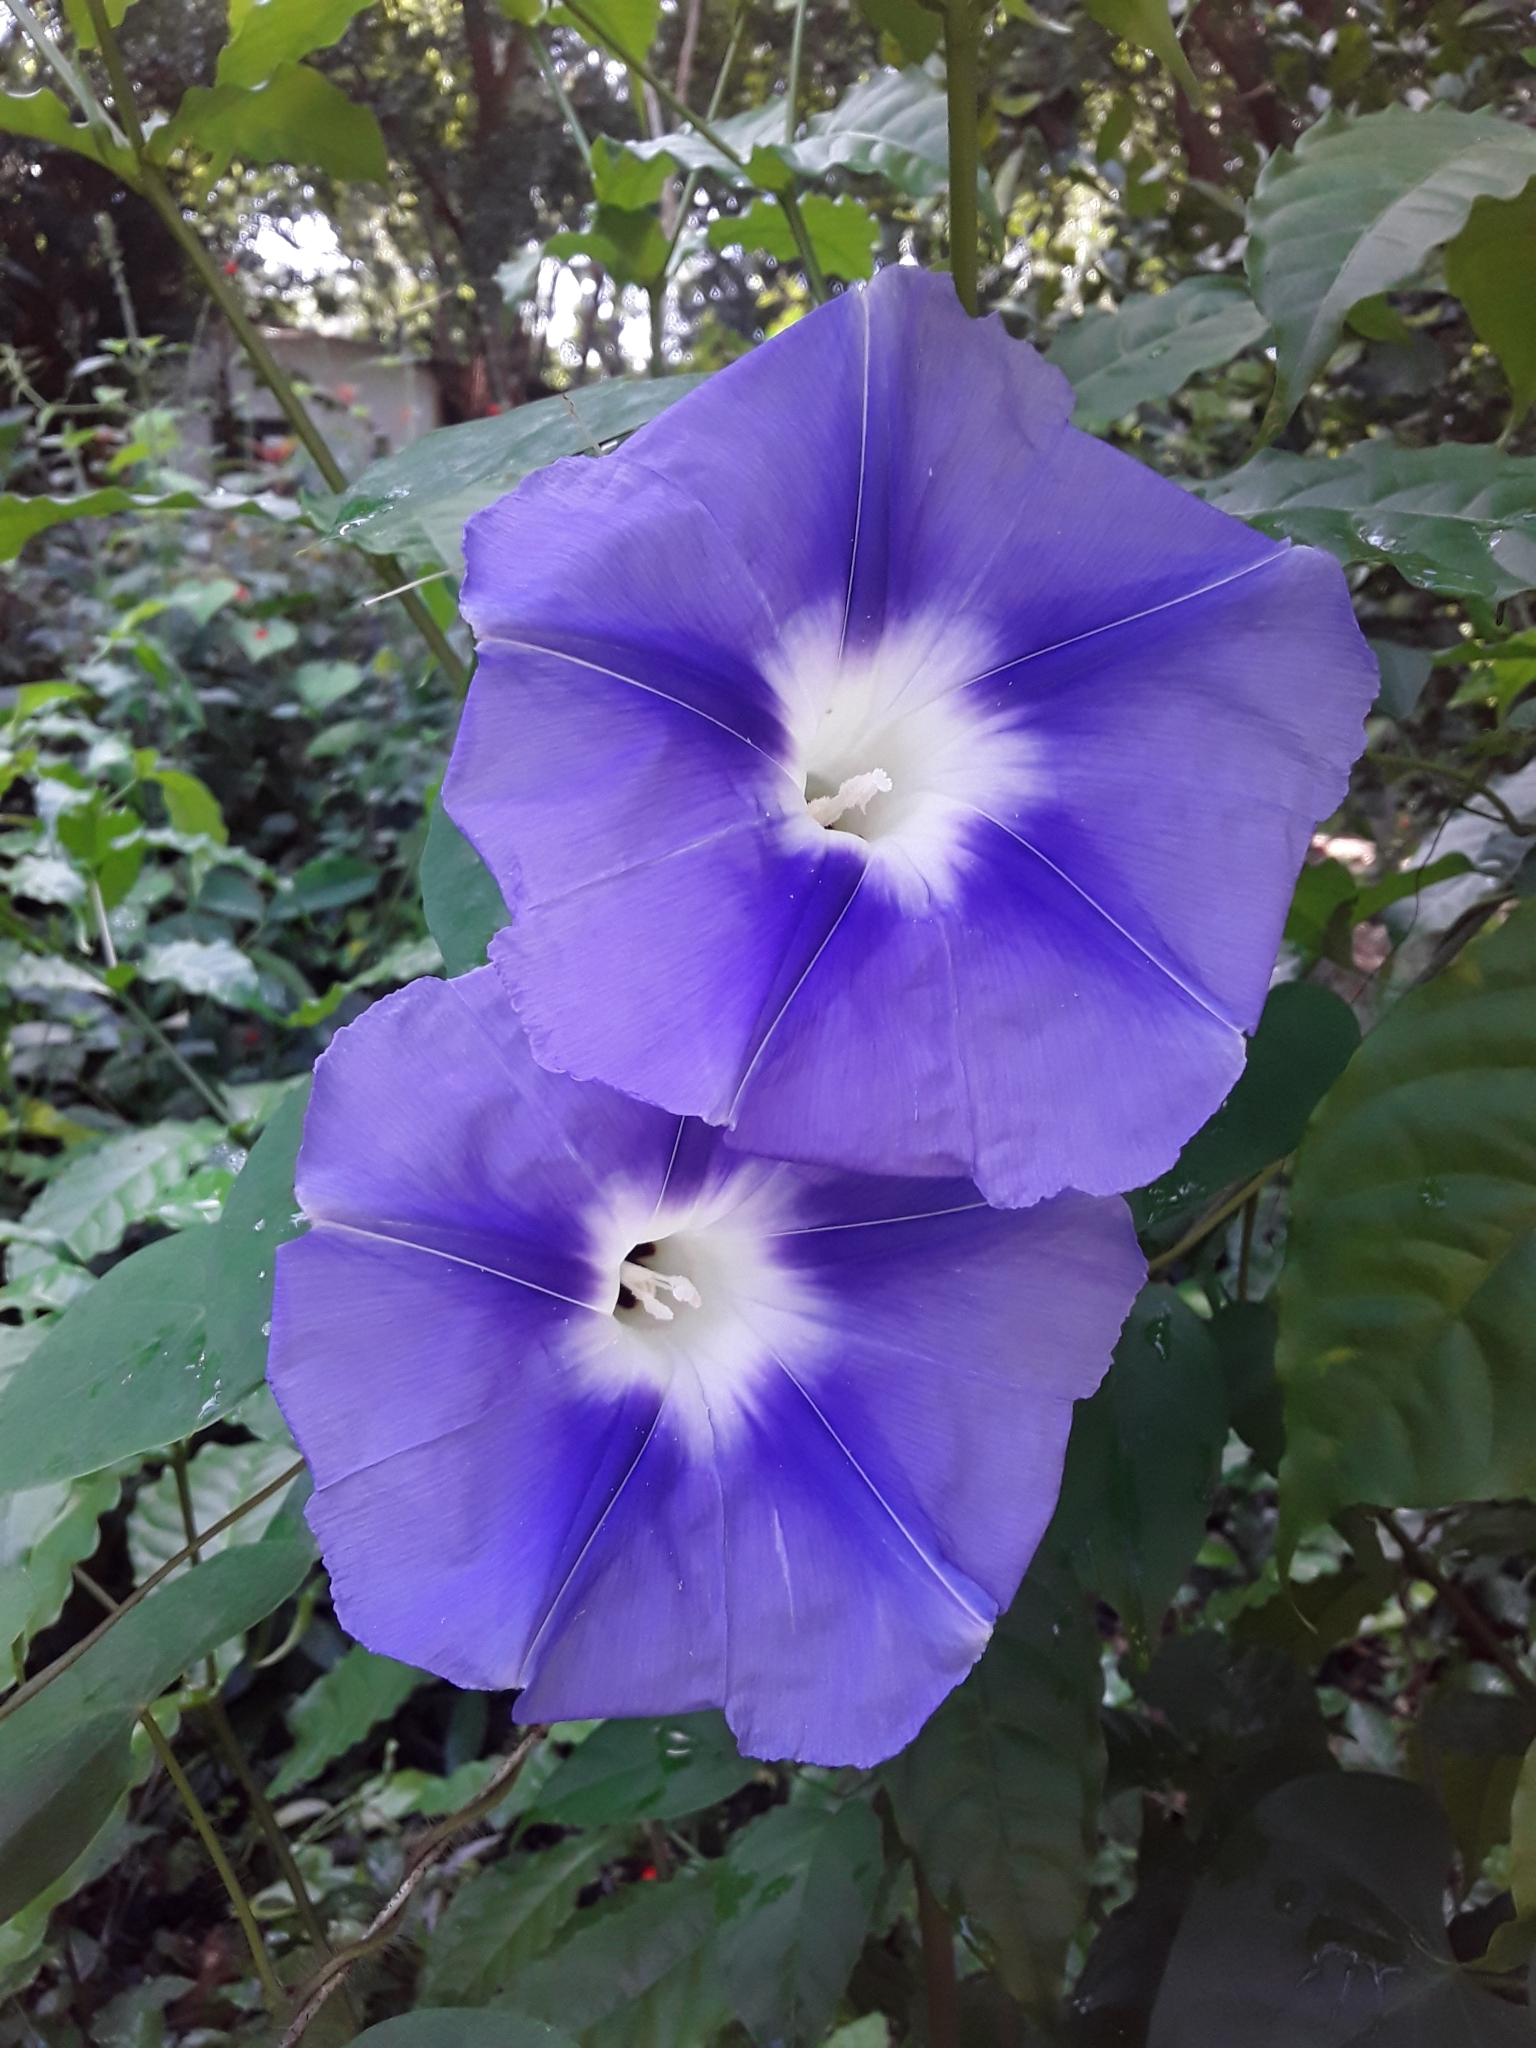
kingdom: Plantae
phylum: Tracheophyta
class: Magnoliopsida
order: Solanales
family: Convolvulaceae
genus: Ipomoea
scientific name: Ipomoea clavata
